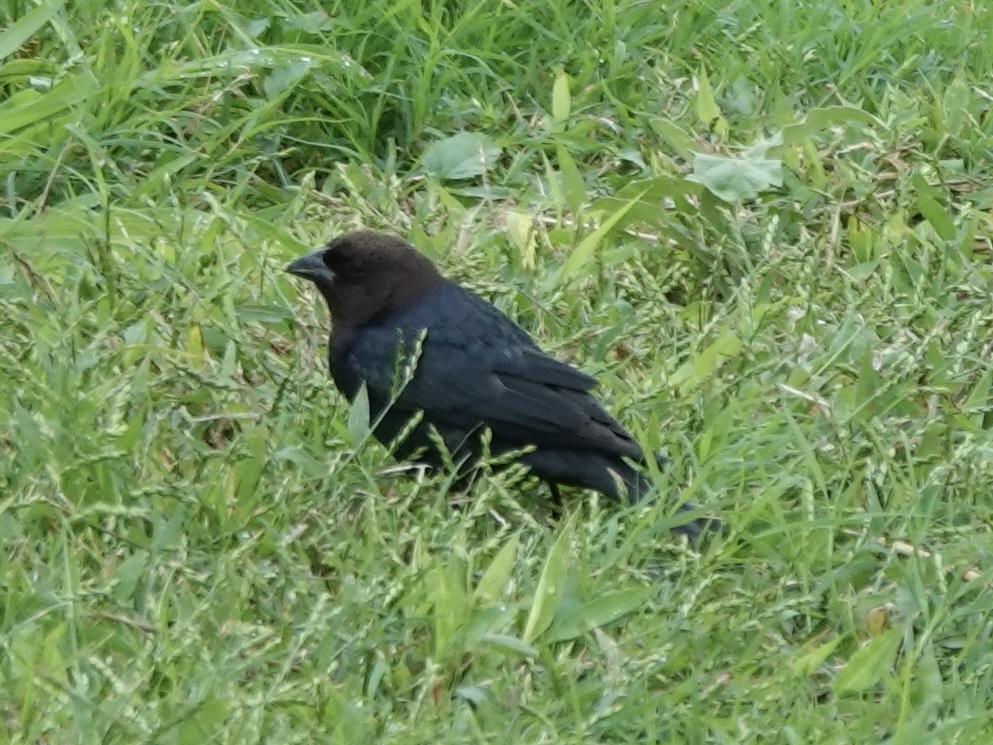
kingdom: Animalia
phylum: Chordata
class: Aves
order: Passeriformes
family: Icteridae
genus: Molothrus
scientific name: Molothrus ater
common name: Brown-headed cowbird
